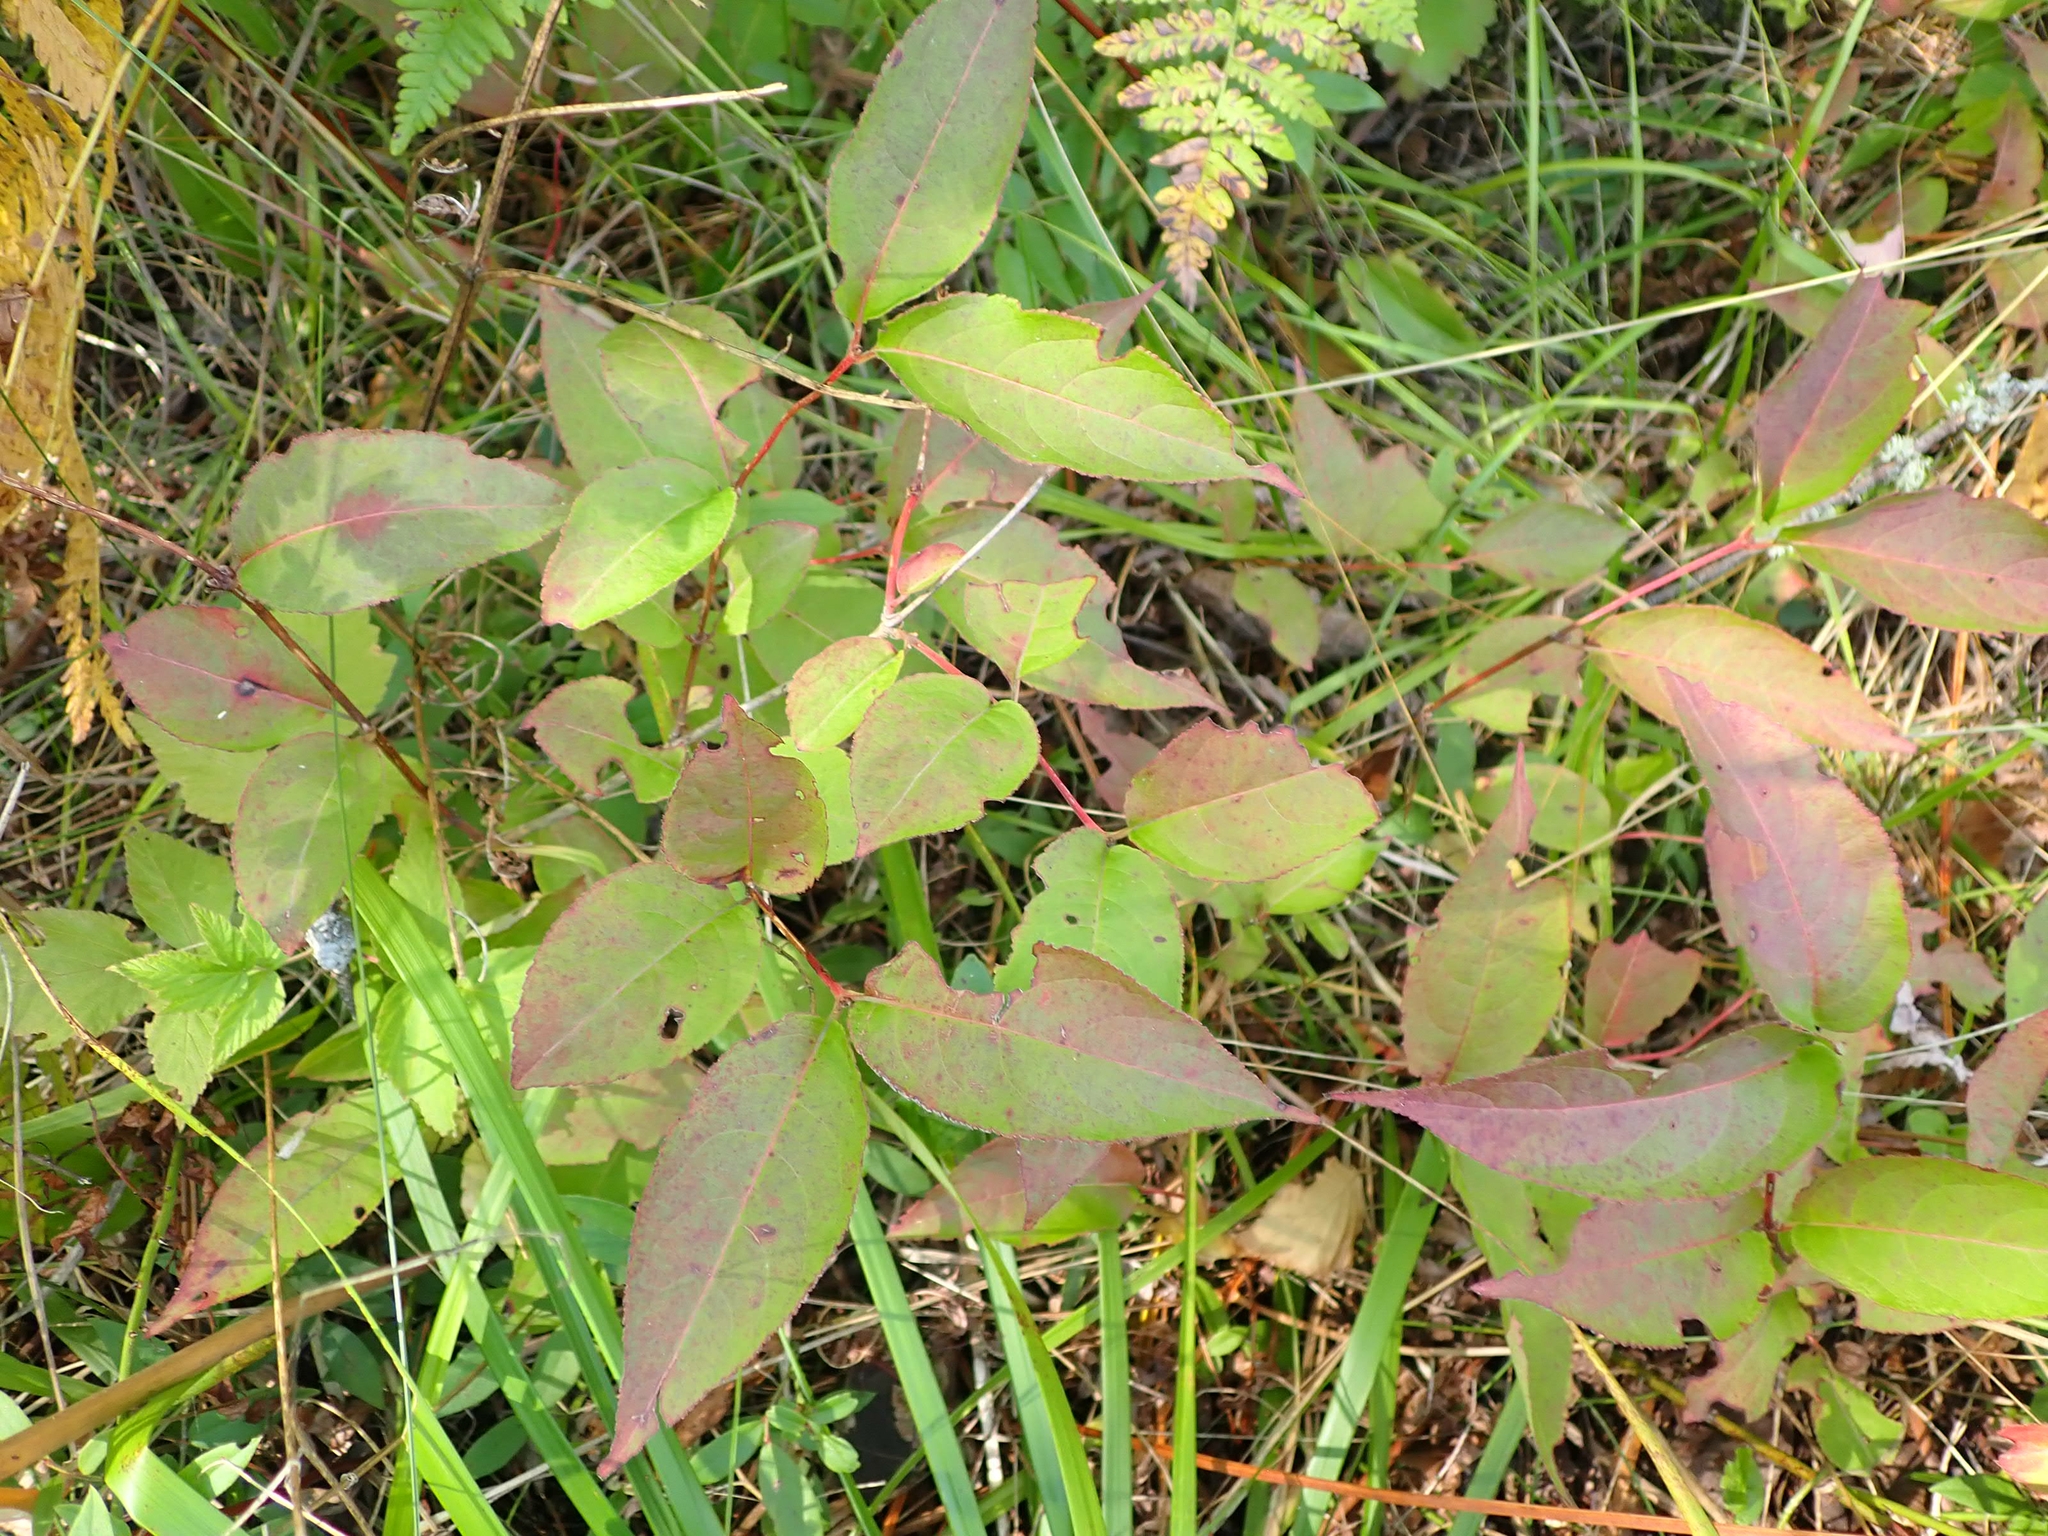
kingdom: Plantae
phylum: Tracheophyta
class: Magnoliopsida
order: Dipsacales
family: Caprifoliaceae
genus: Diervilla
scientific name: Diervilla lonicera
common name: Bush-honeysuckle
